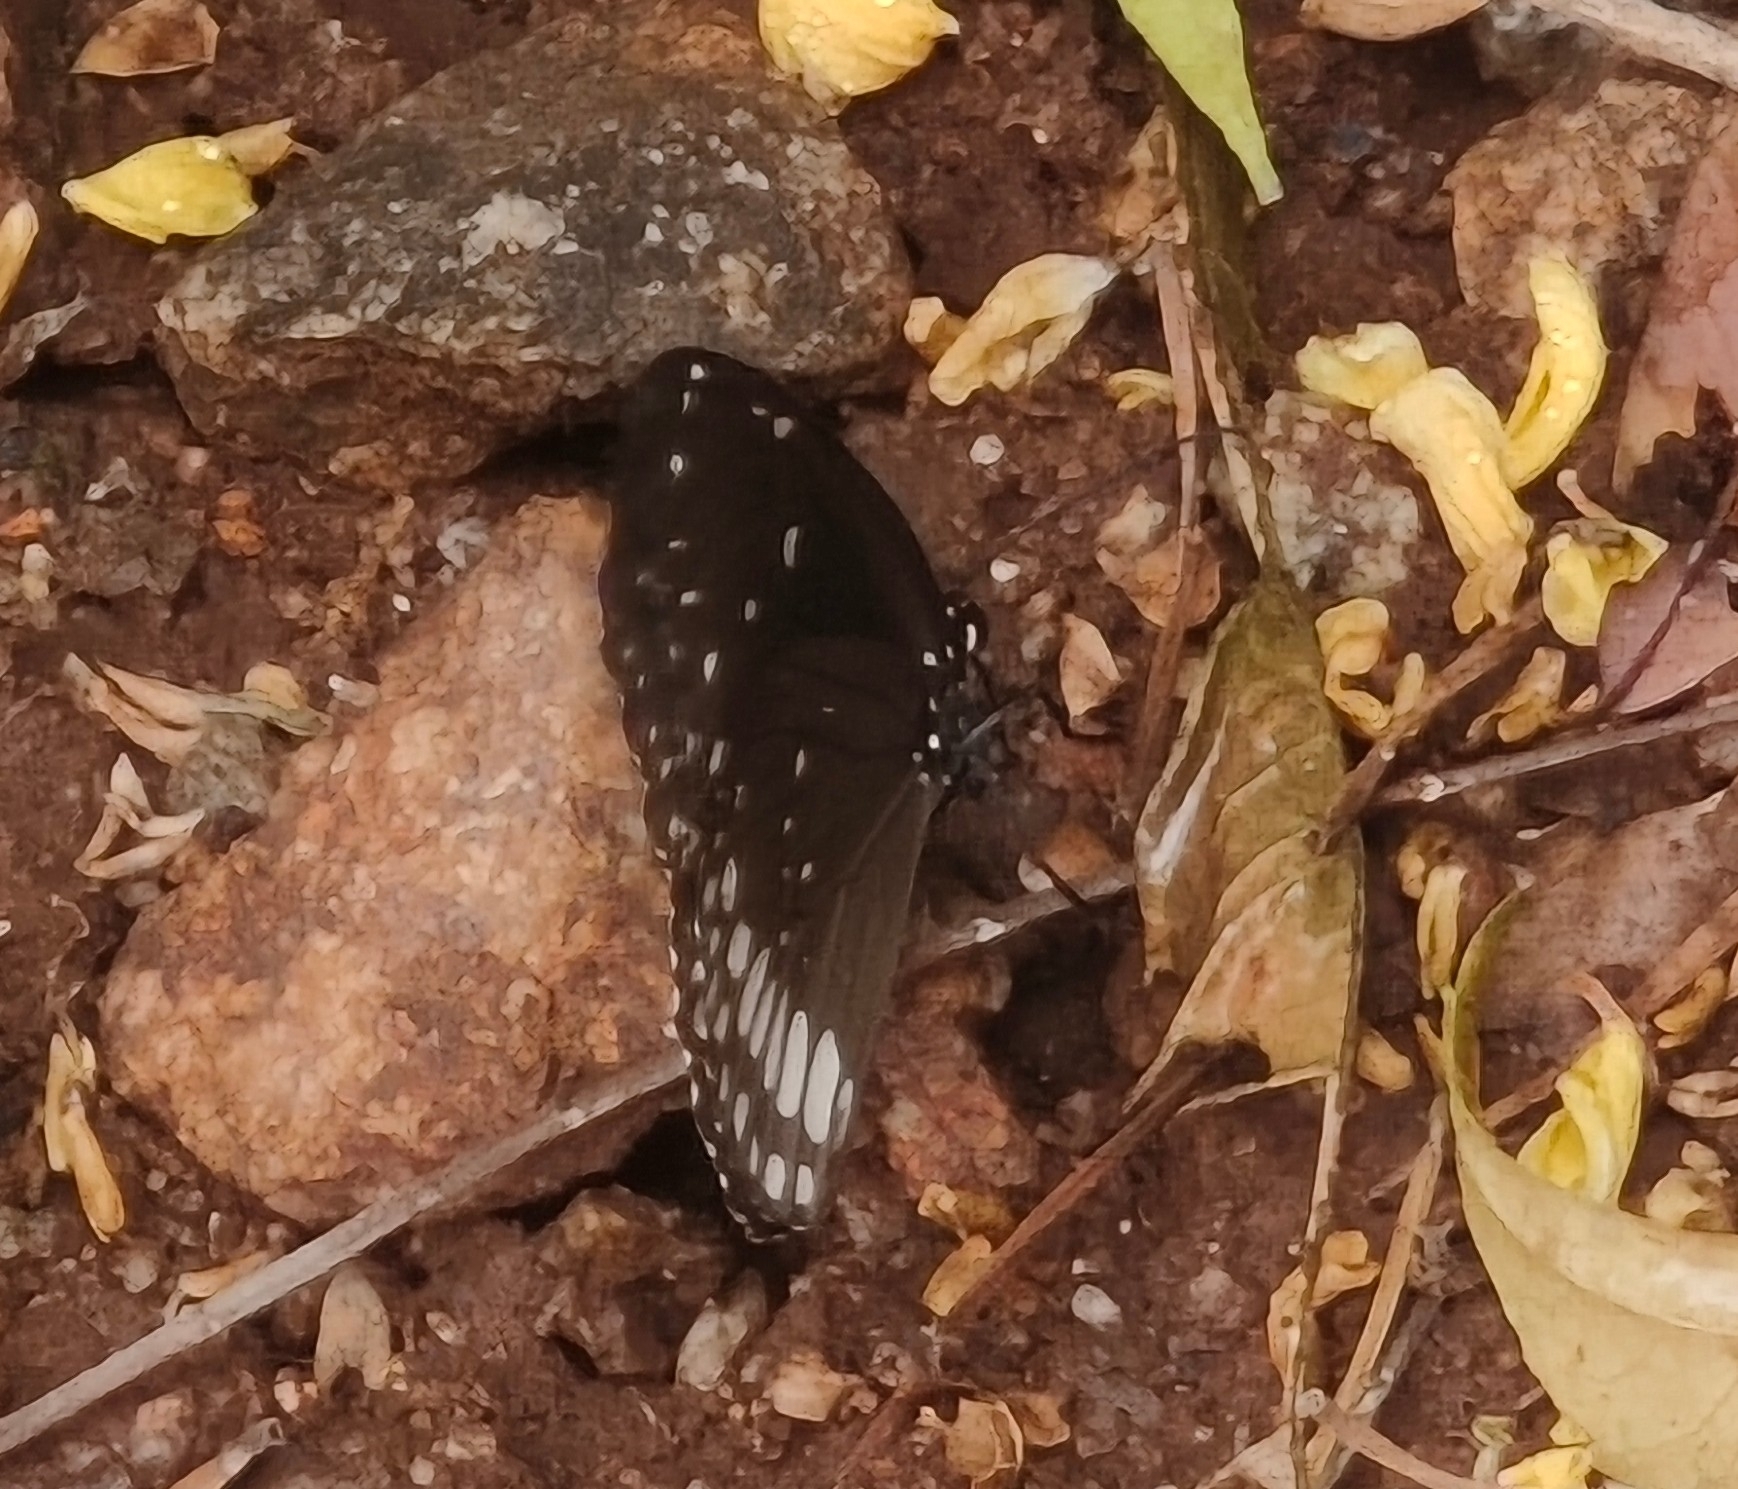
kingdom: Animalia
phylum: Arthropoda
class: Insecta
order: Lepidoptera
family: Nymphalidae
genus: Euploea
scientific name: Euploea core
